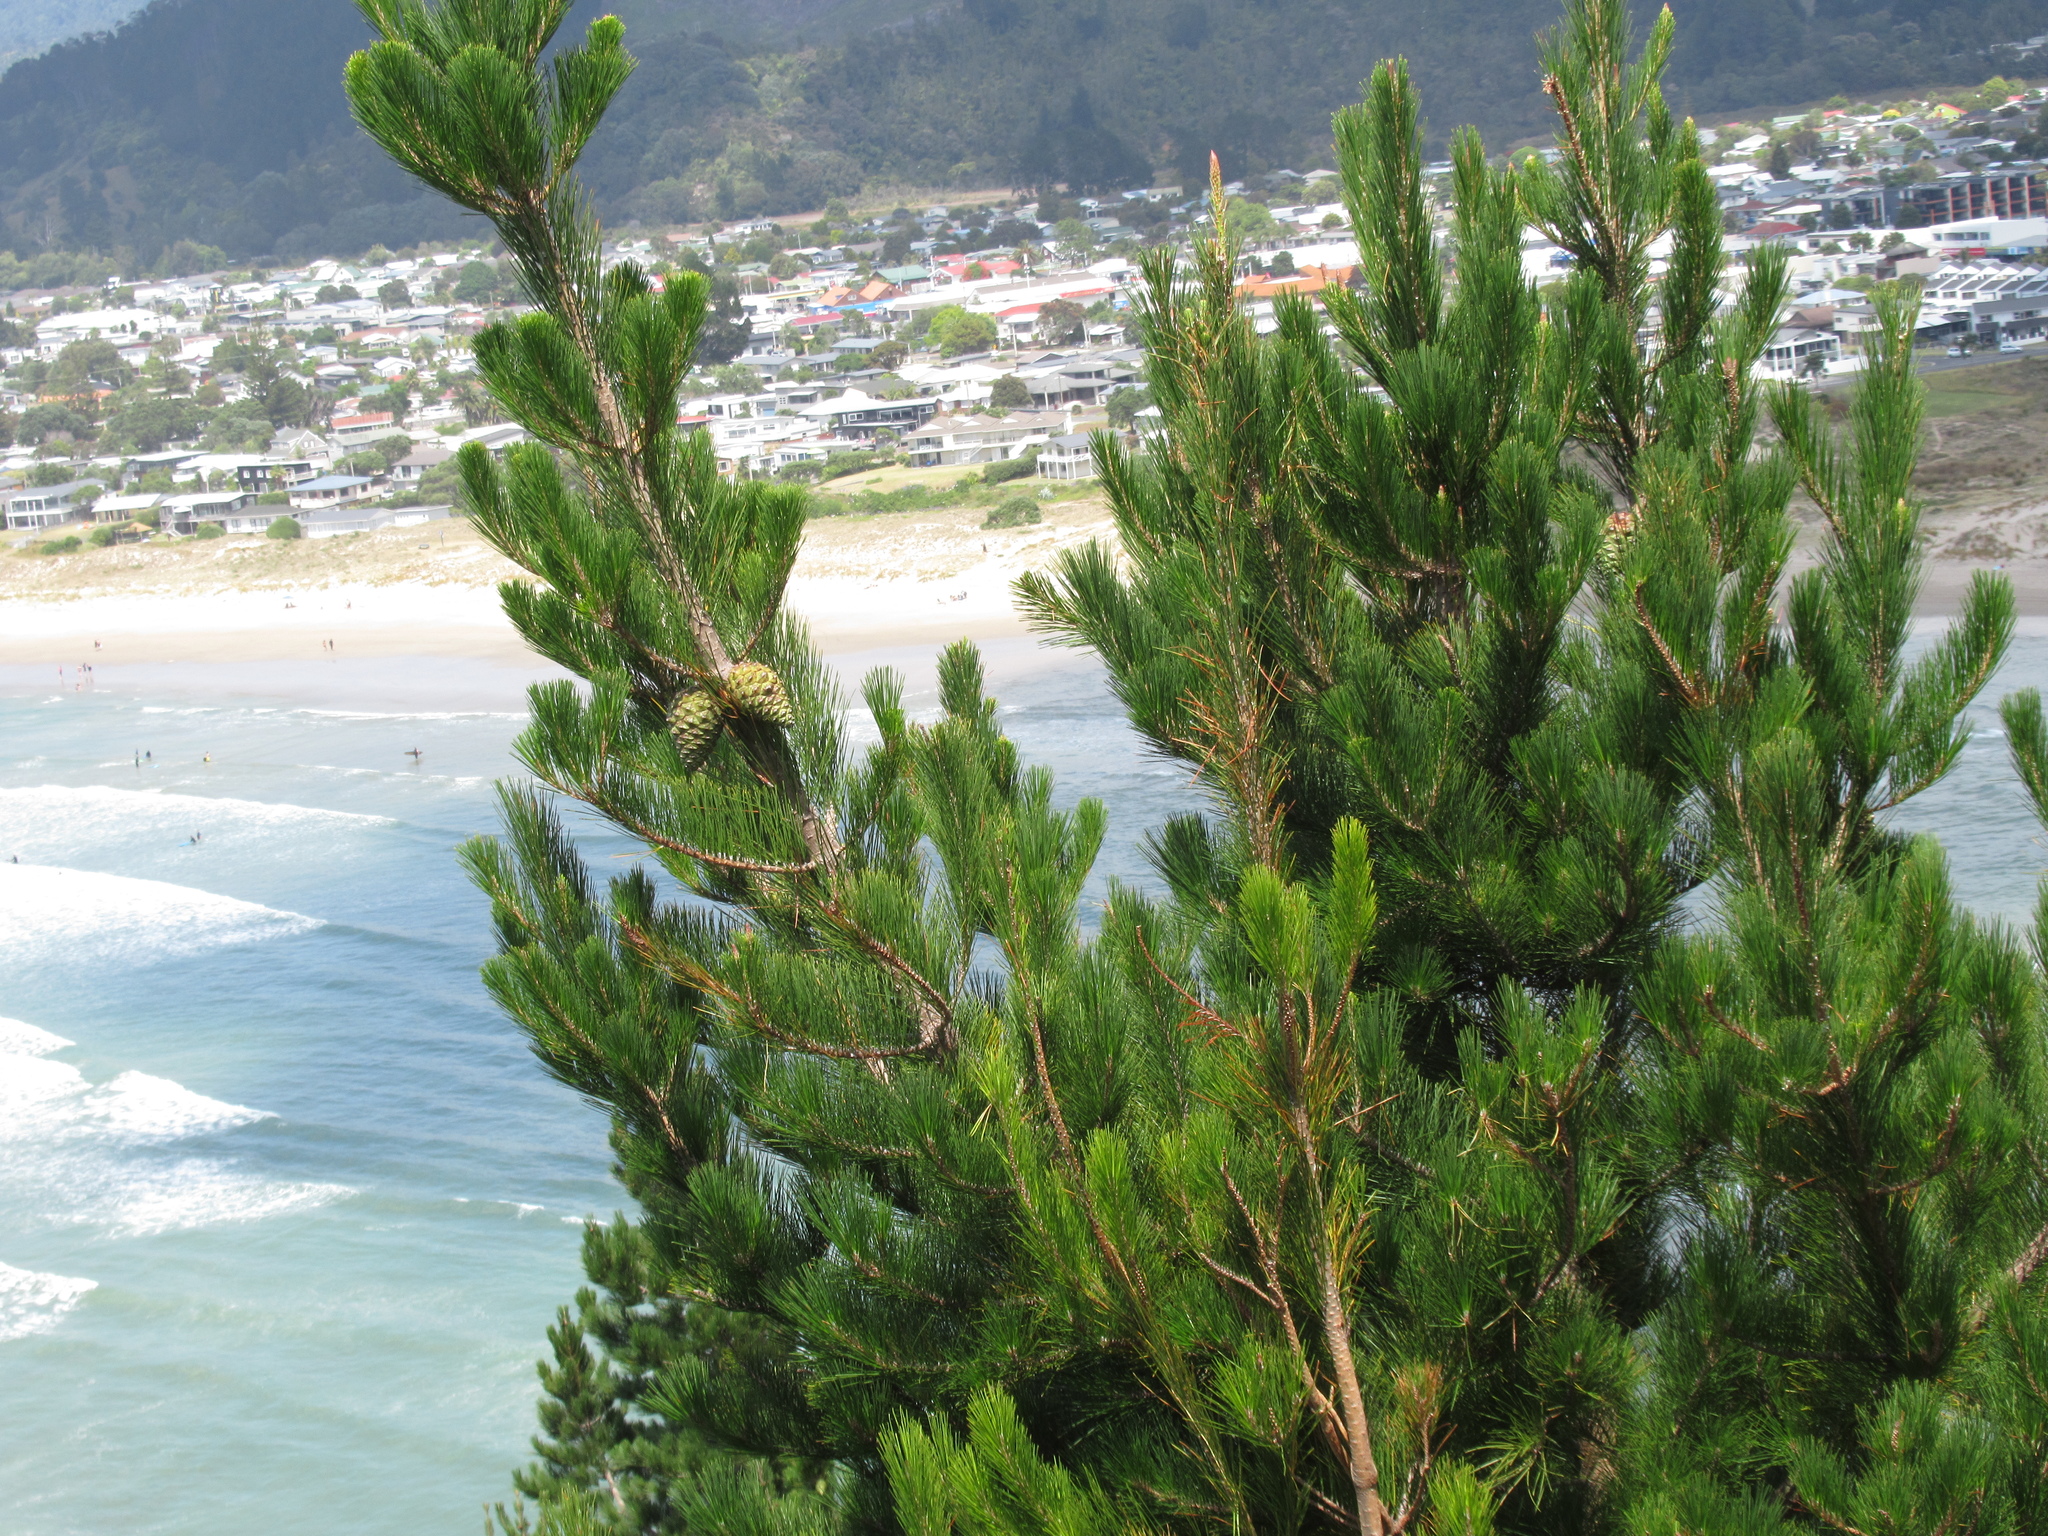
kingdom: Plantae
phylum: Tracheophyta
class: Pinopsida
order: Pinales
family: Pinaceae
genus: Pinus
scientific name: Pinus radiata
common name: Monterey pine
